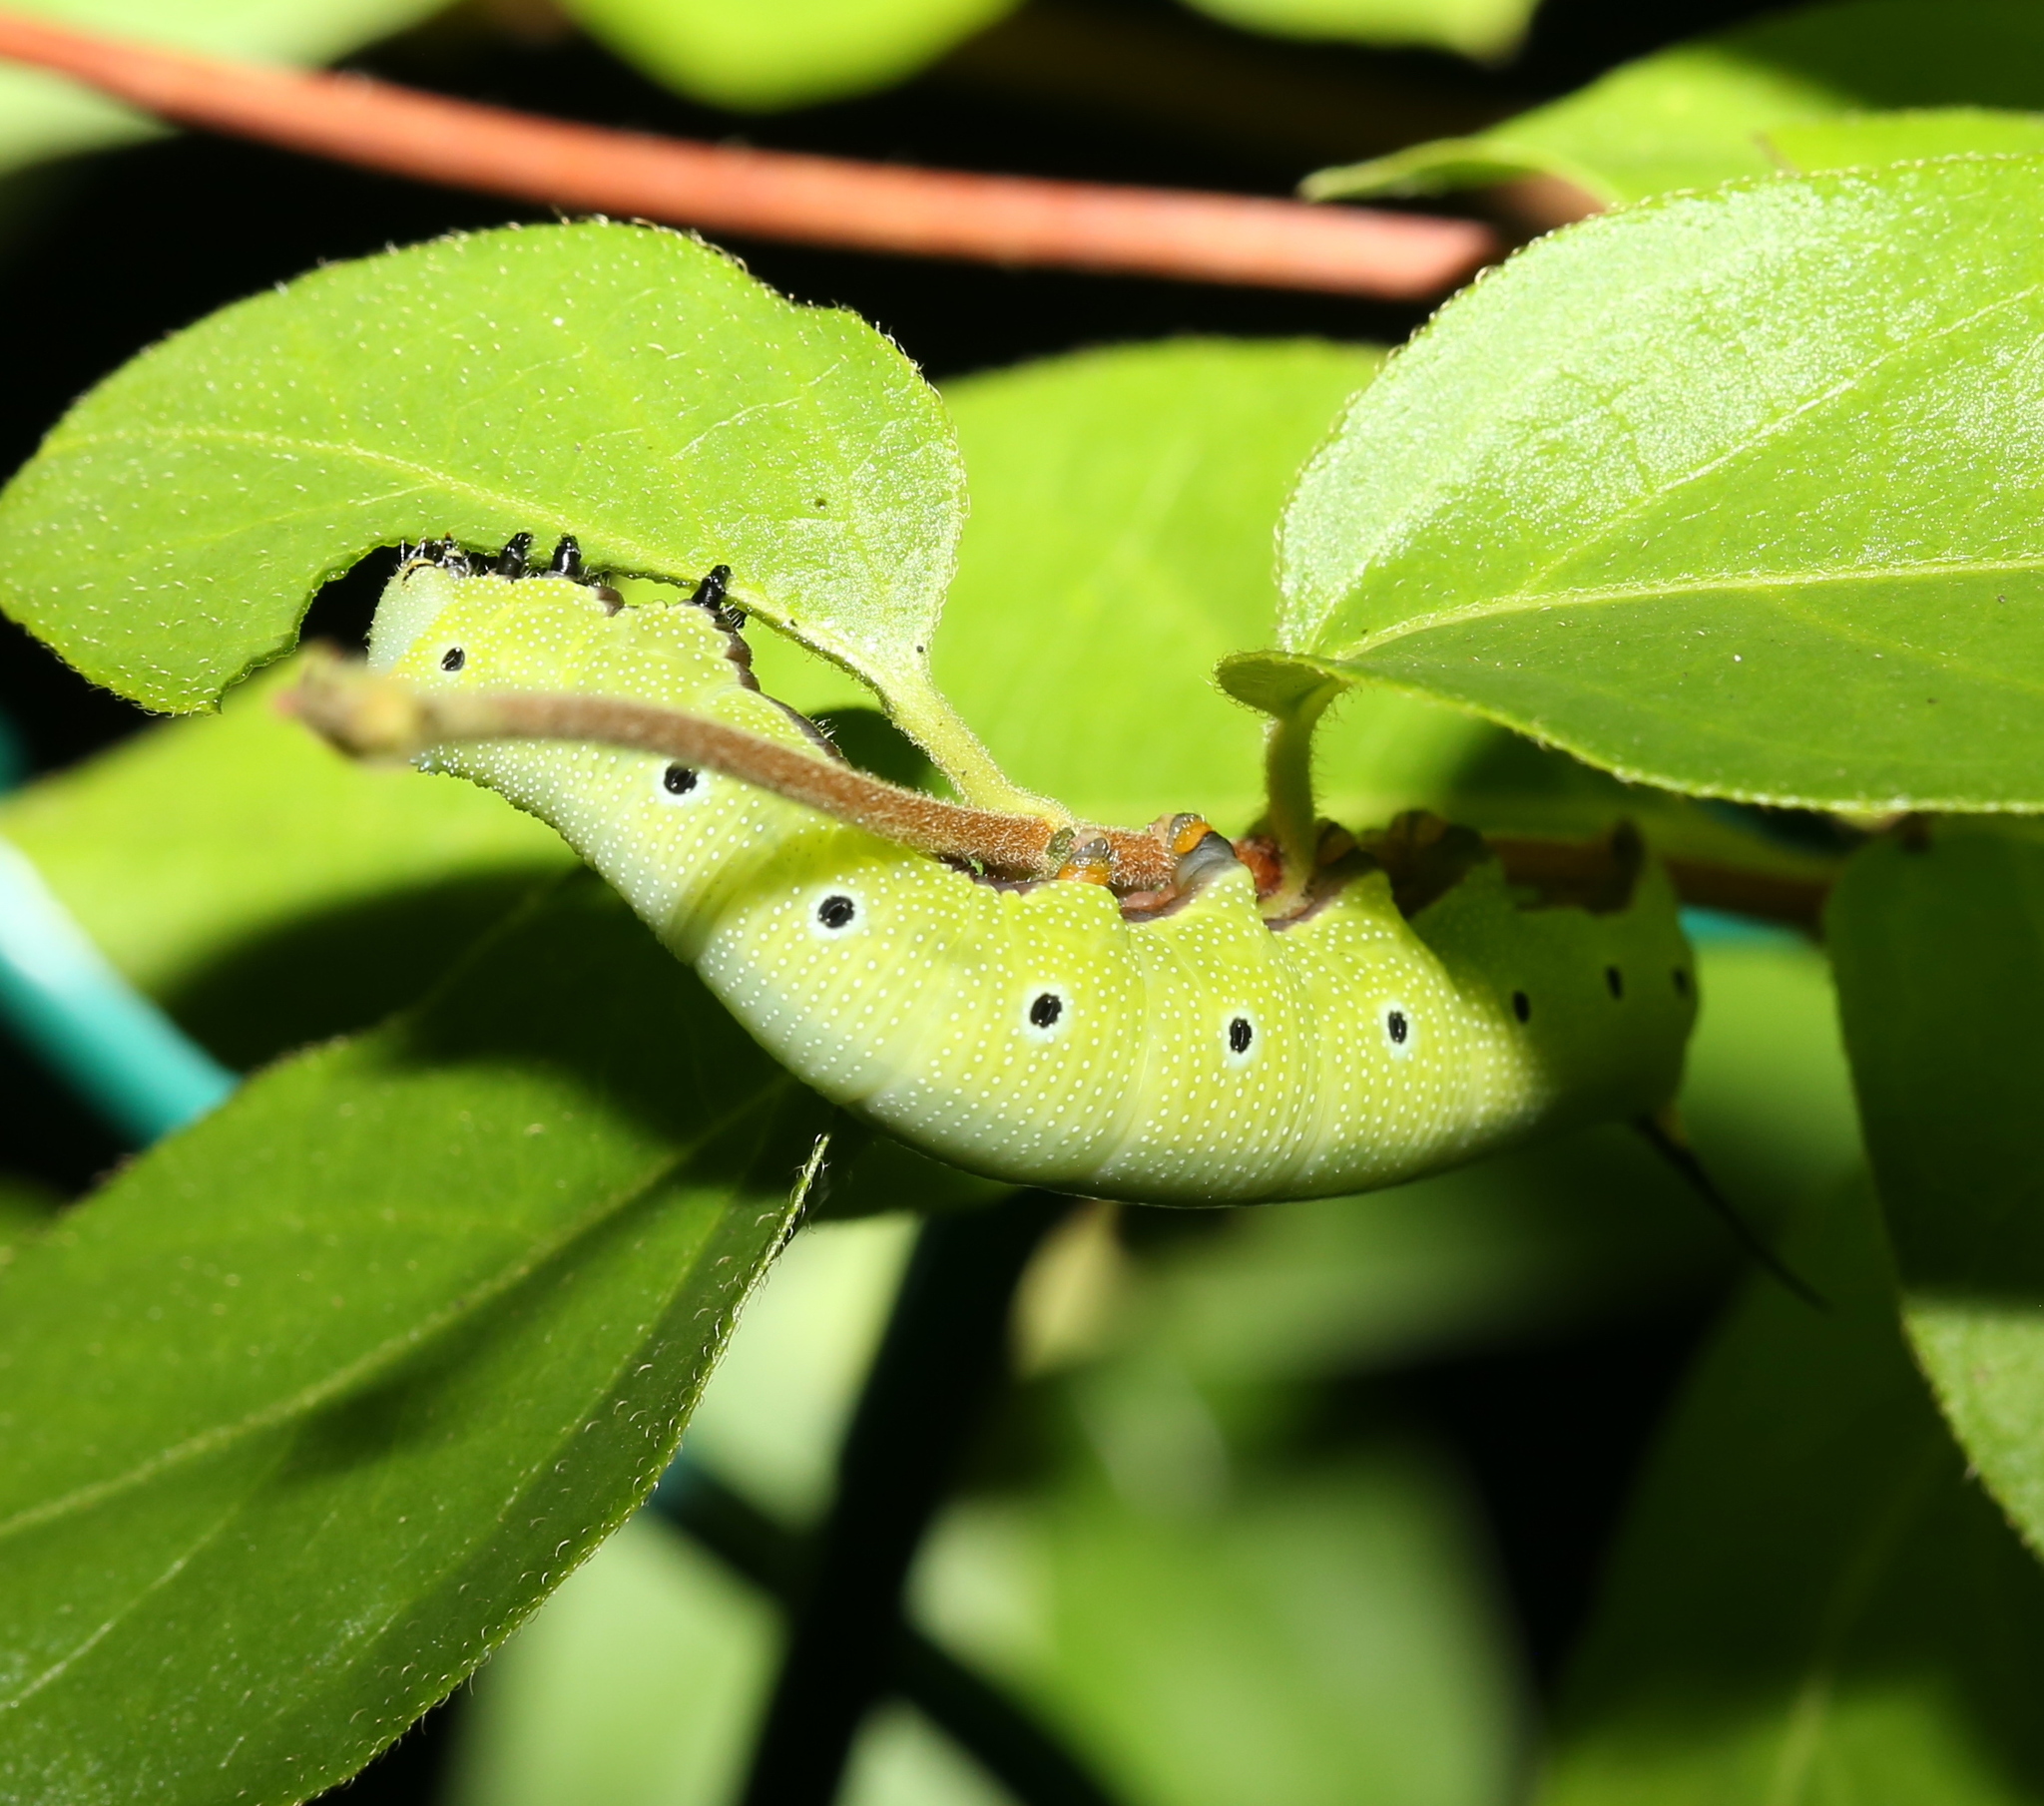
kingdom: Animalia
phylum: Arthropoda
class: Insecta
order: Lepidoptera
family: Sphingidae
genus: Hemaris
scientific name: Hemaris diffinis
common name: Bumblebee moth
